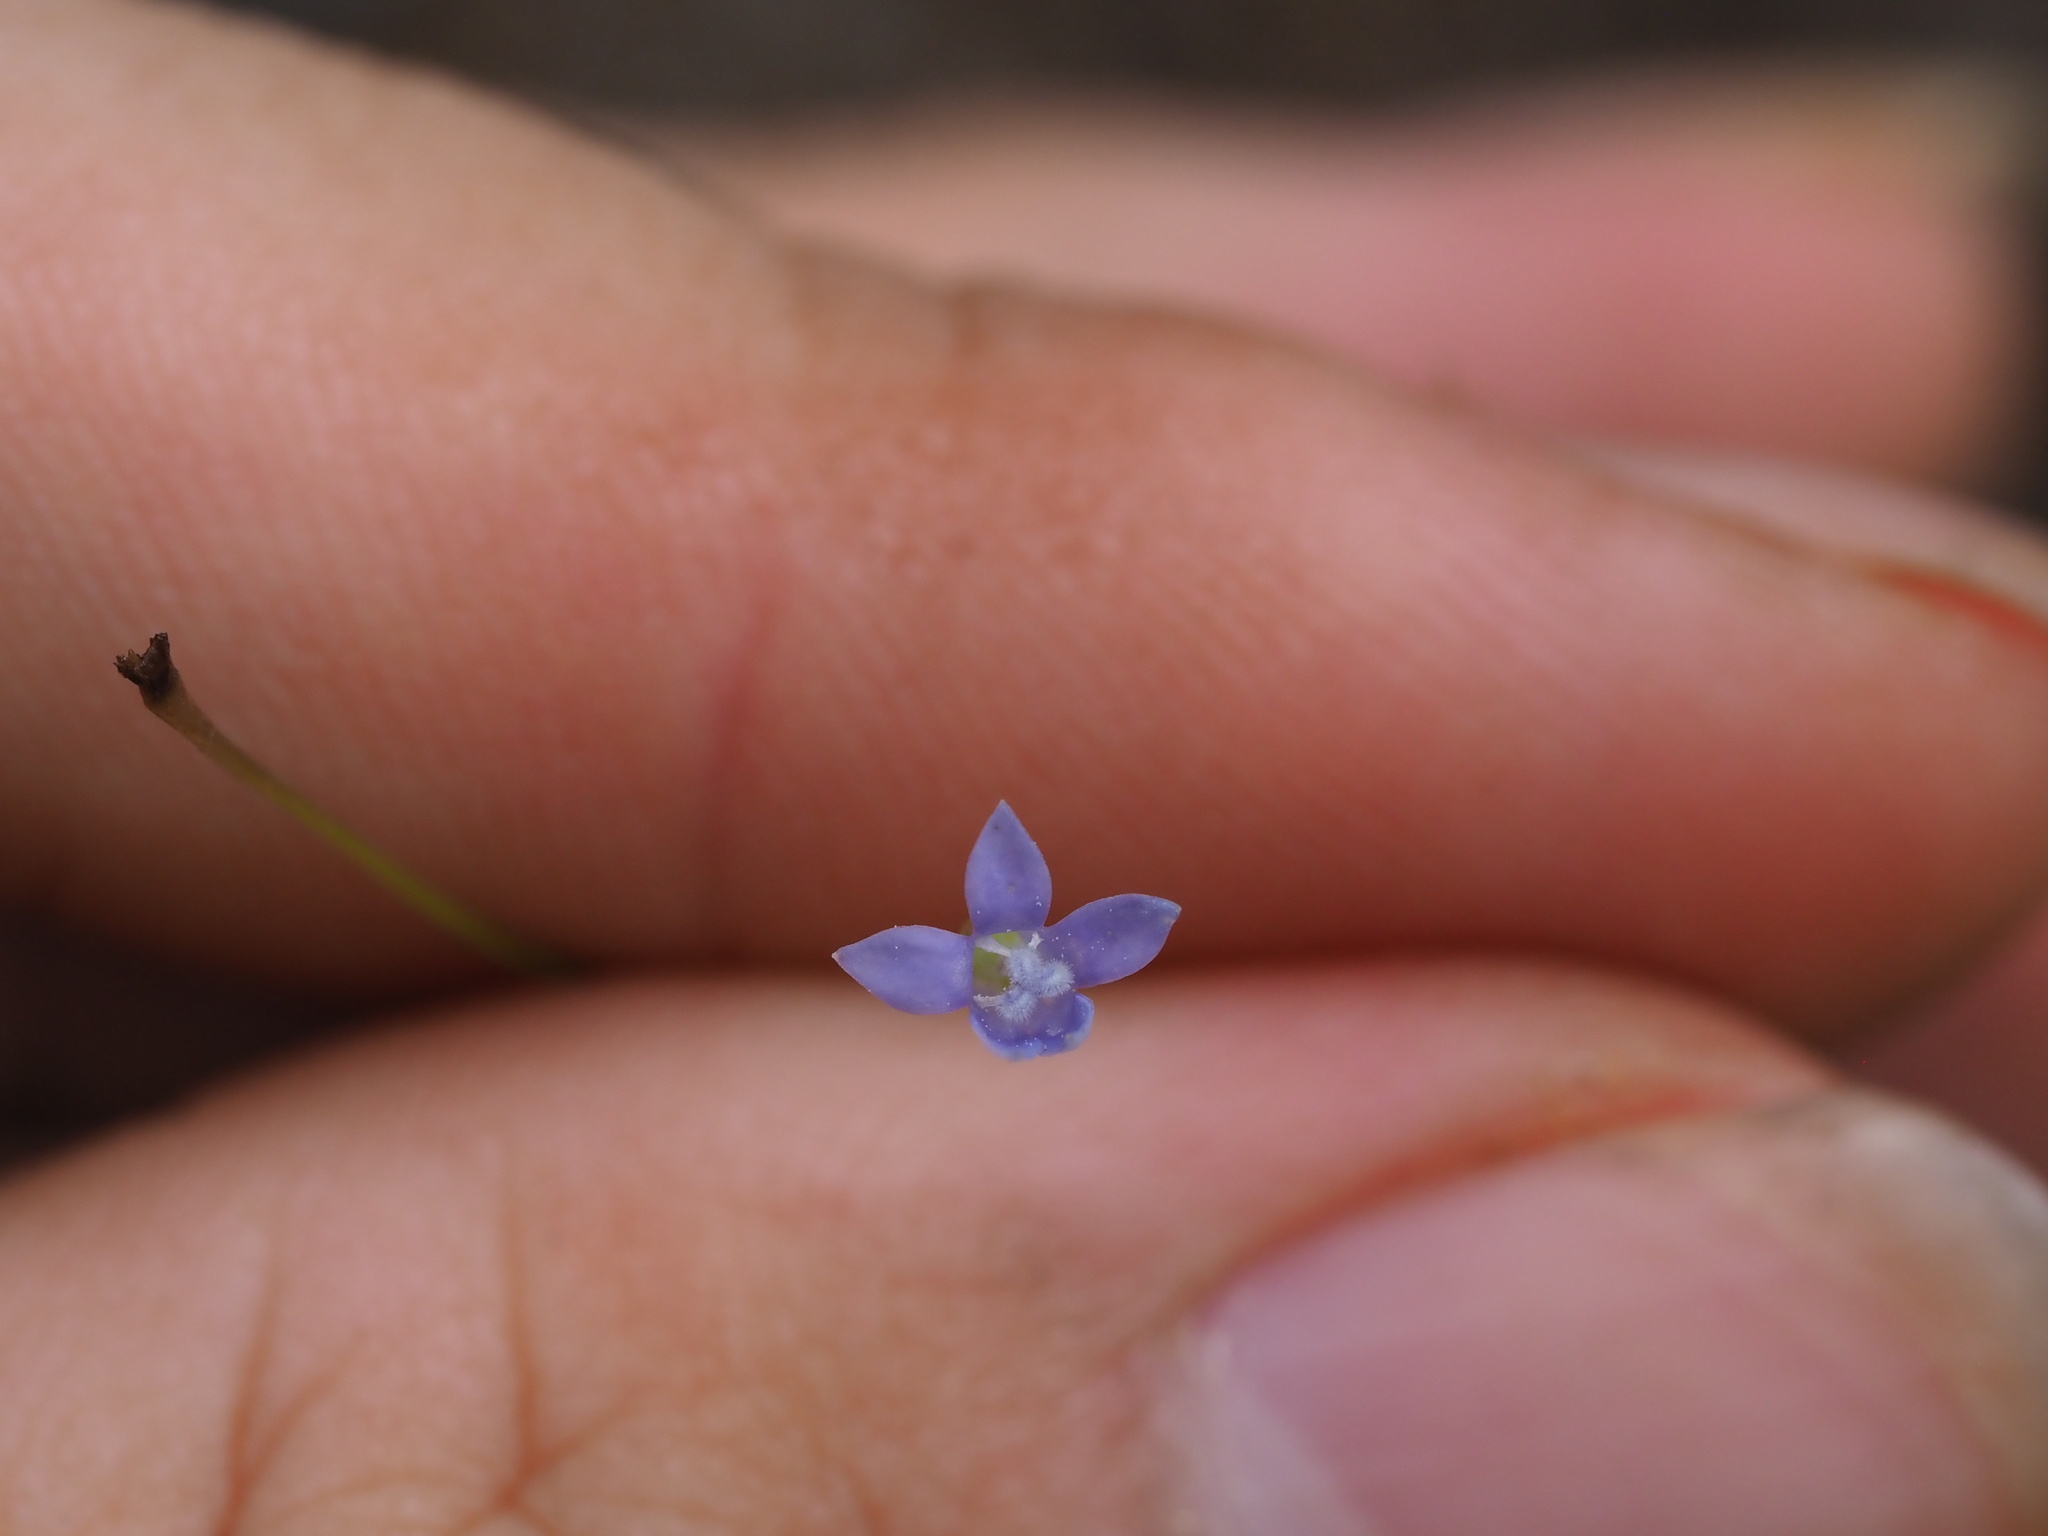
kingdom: Plantae
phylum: Tracheophyta
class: Magnoliopsida
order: Asterales
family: Campanulaceae
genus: Wahlenbergia
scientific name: Wahlenbergia gracilis
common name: Harebell
